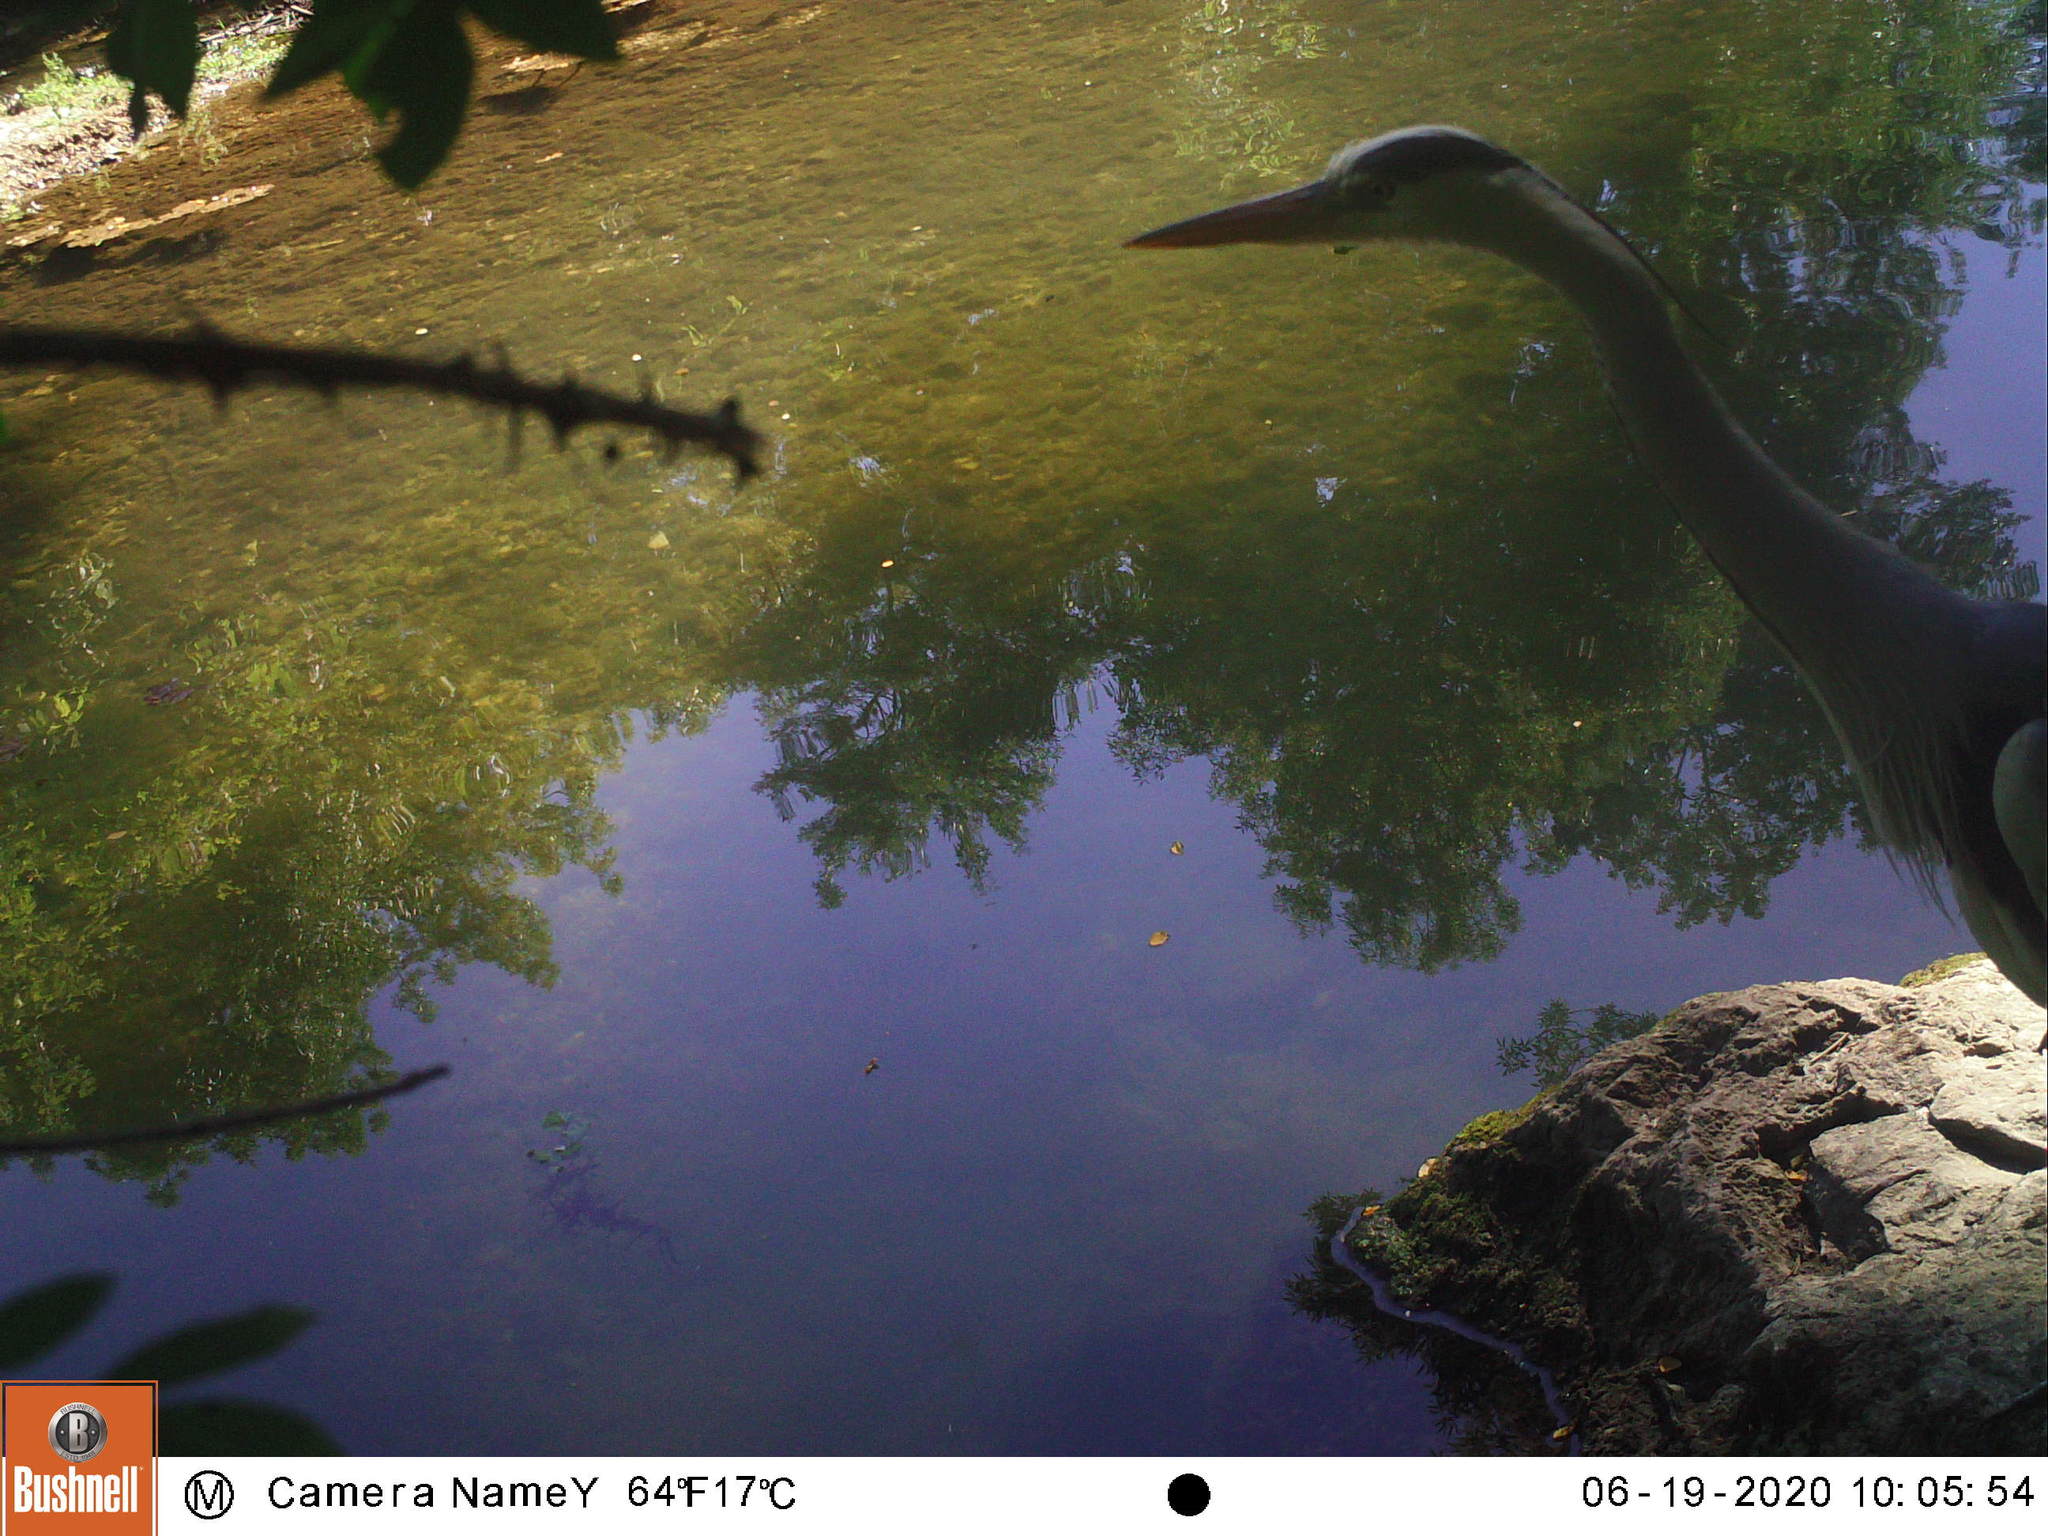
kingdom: Animalia
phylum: Chordata
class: Aves
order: Pelecaniformes
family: Ardeidae
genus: Ardea
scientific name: Ardea cinerea
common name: Grey heron
